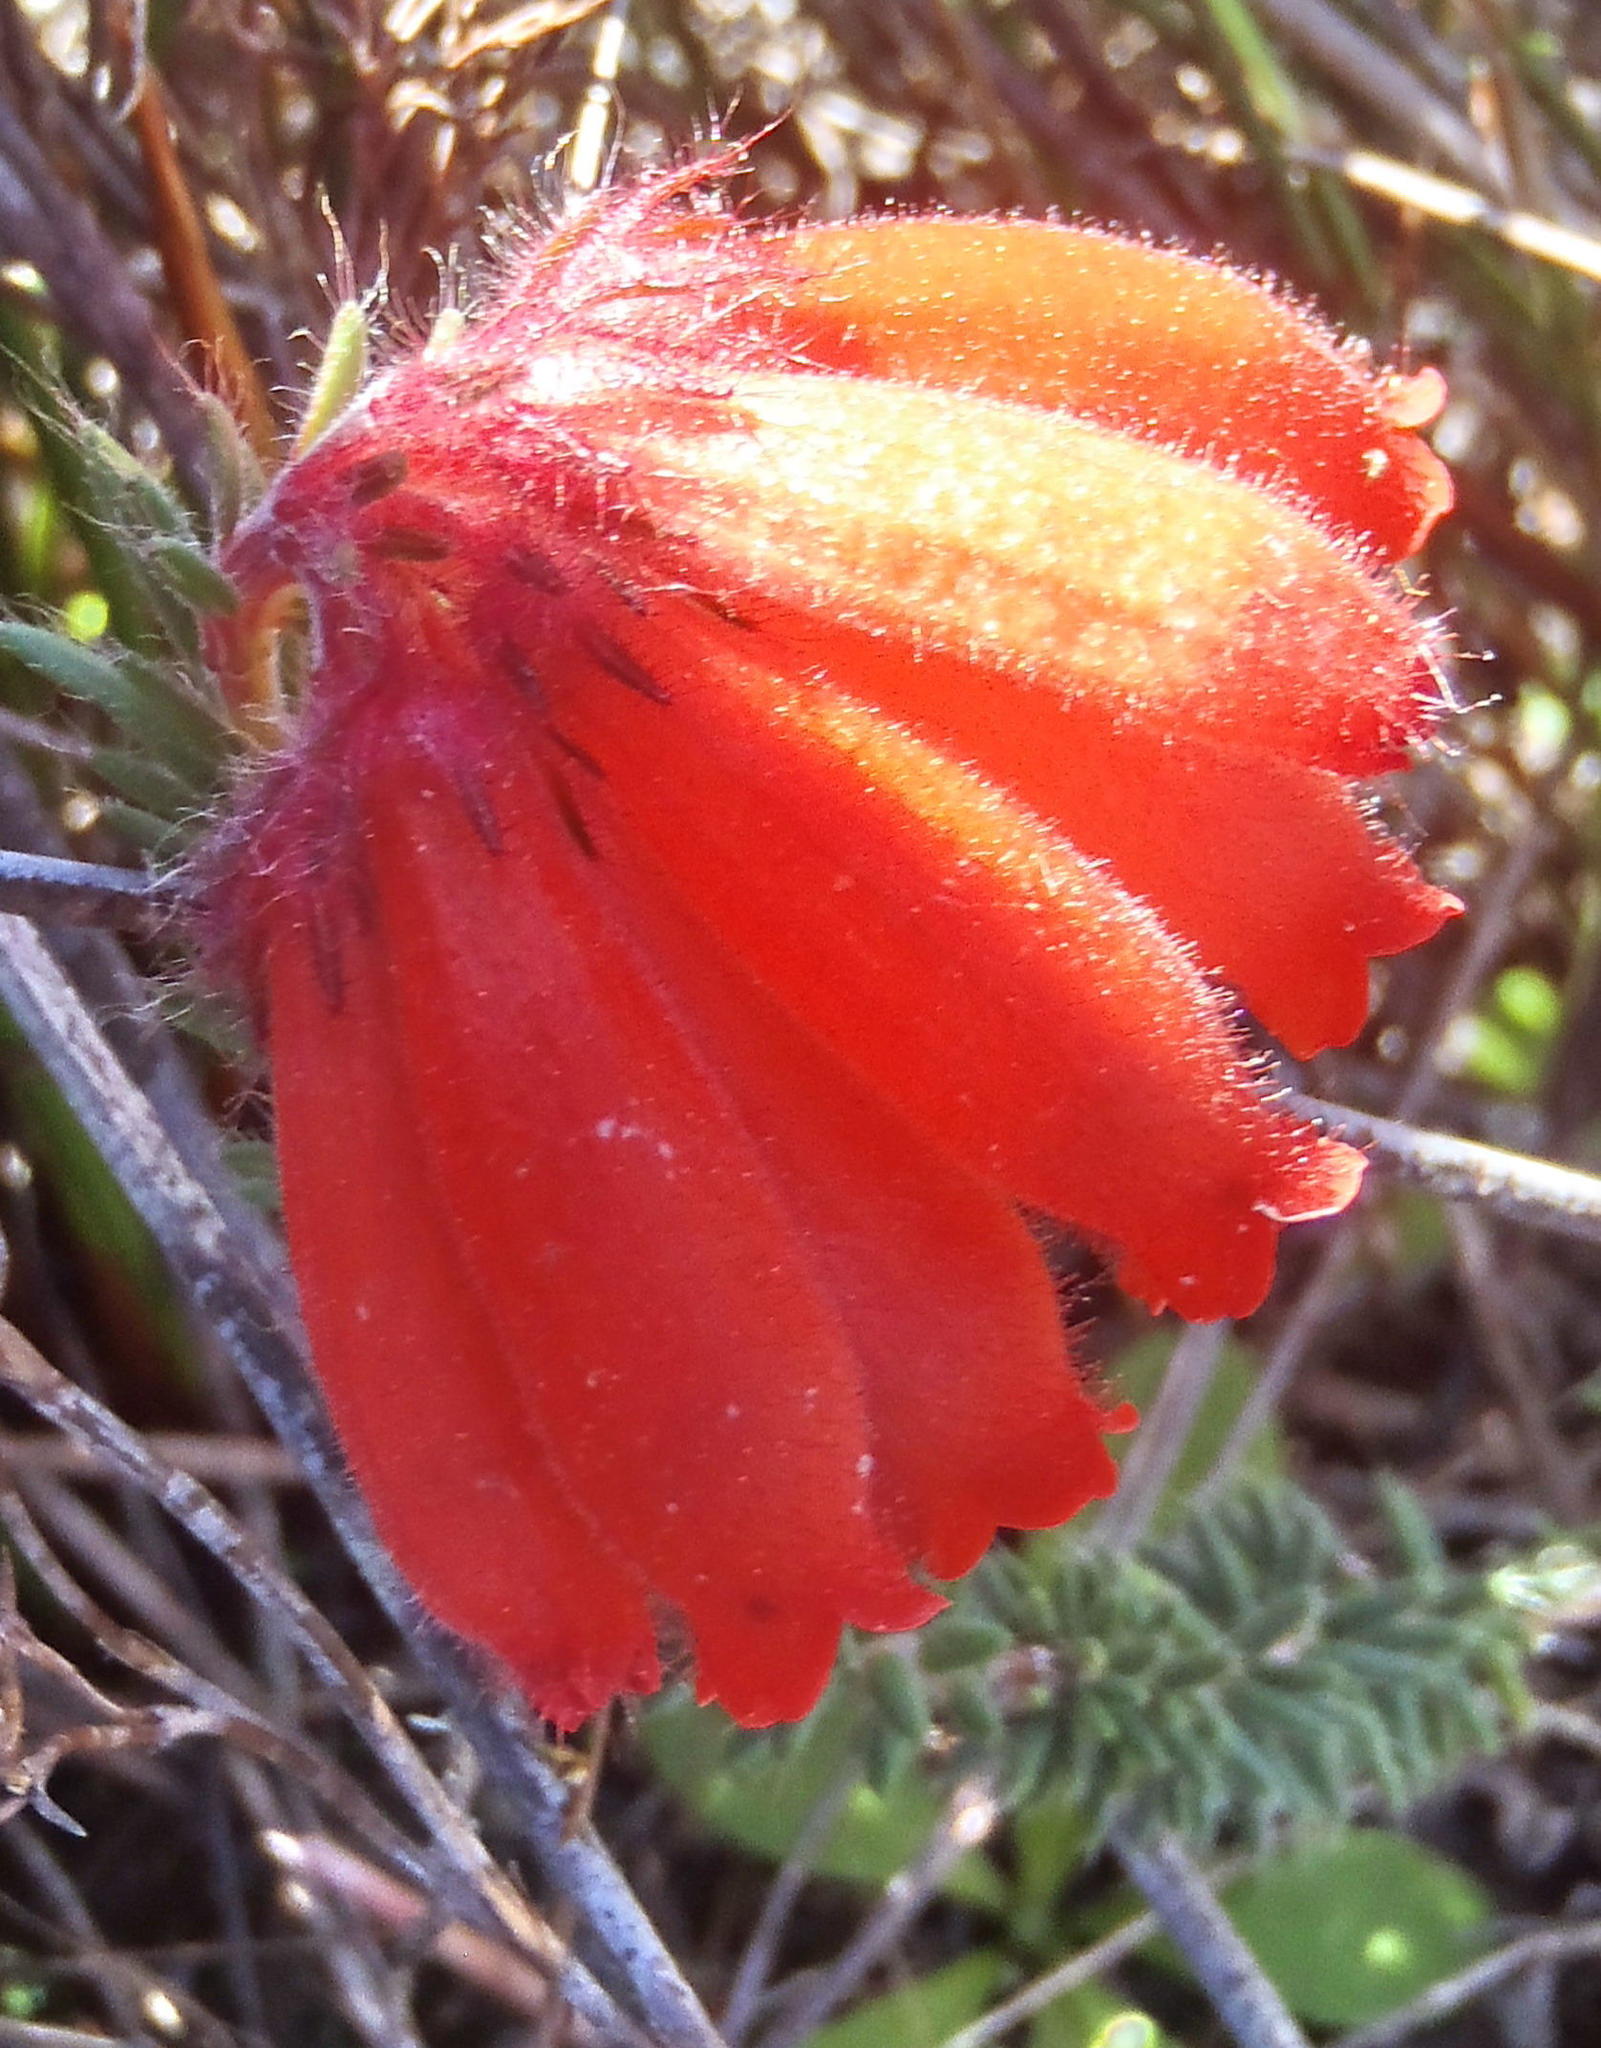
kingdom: Plantae
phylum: Tracheophyta
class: Magnoliopsida
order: Ericales
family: Ericaceae
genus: Erica
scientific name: Erica cerinthoides
